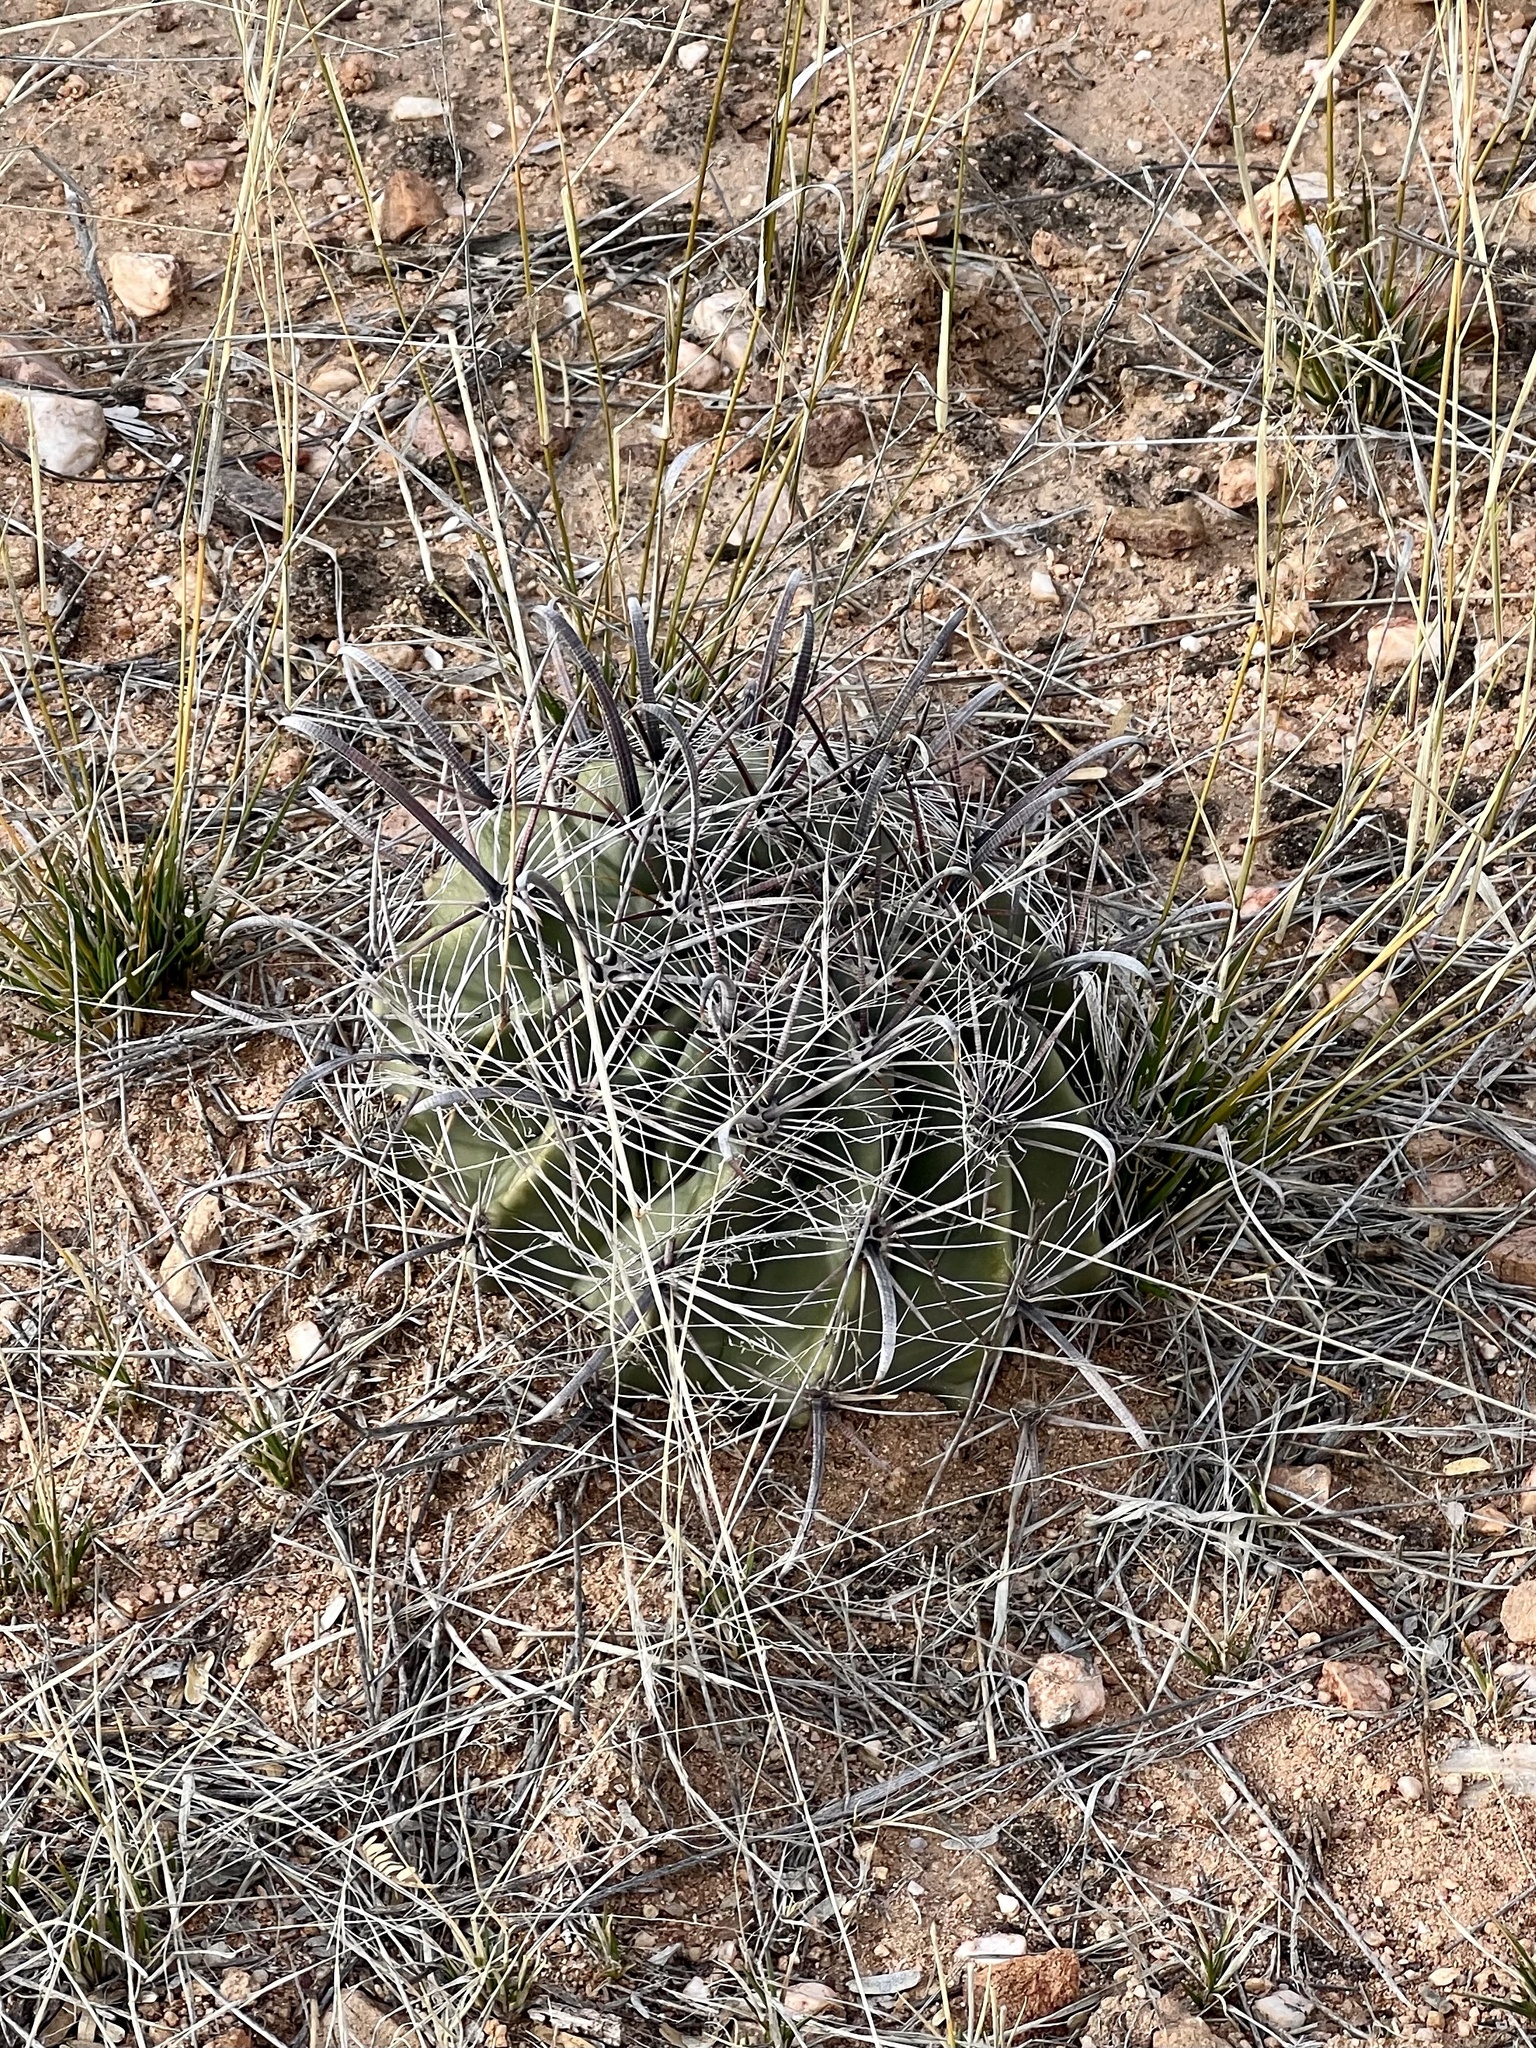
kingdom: Plantae
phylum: Tracheophyta
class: Magnoliopsida
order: Caryophyllales
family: Cactaceae
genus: Ferocactus
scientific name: Ferocactus wislizeni
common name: Candy barrel cactus
